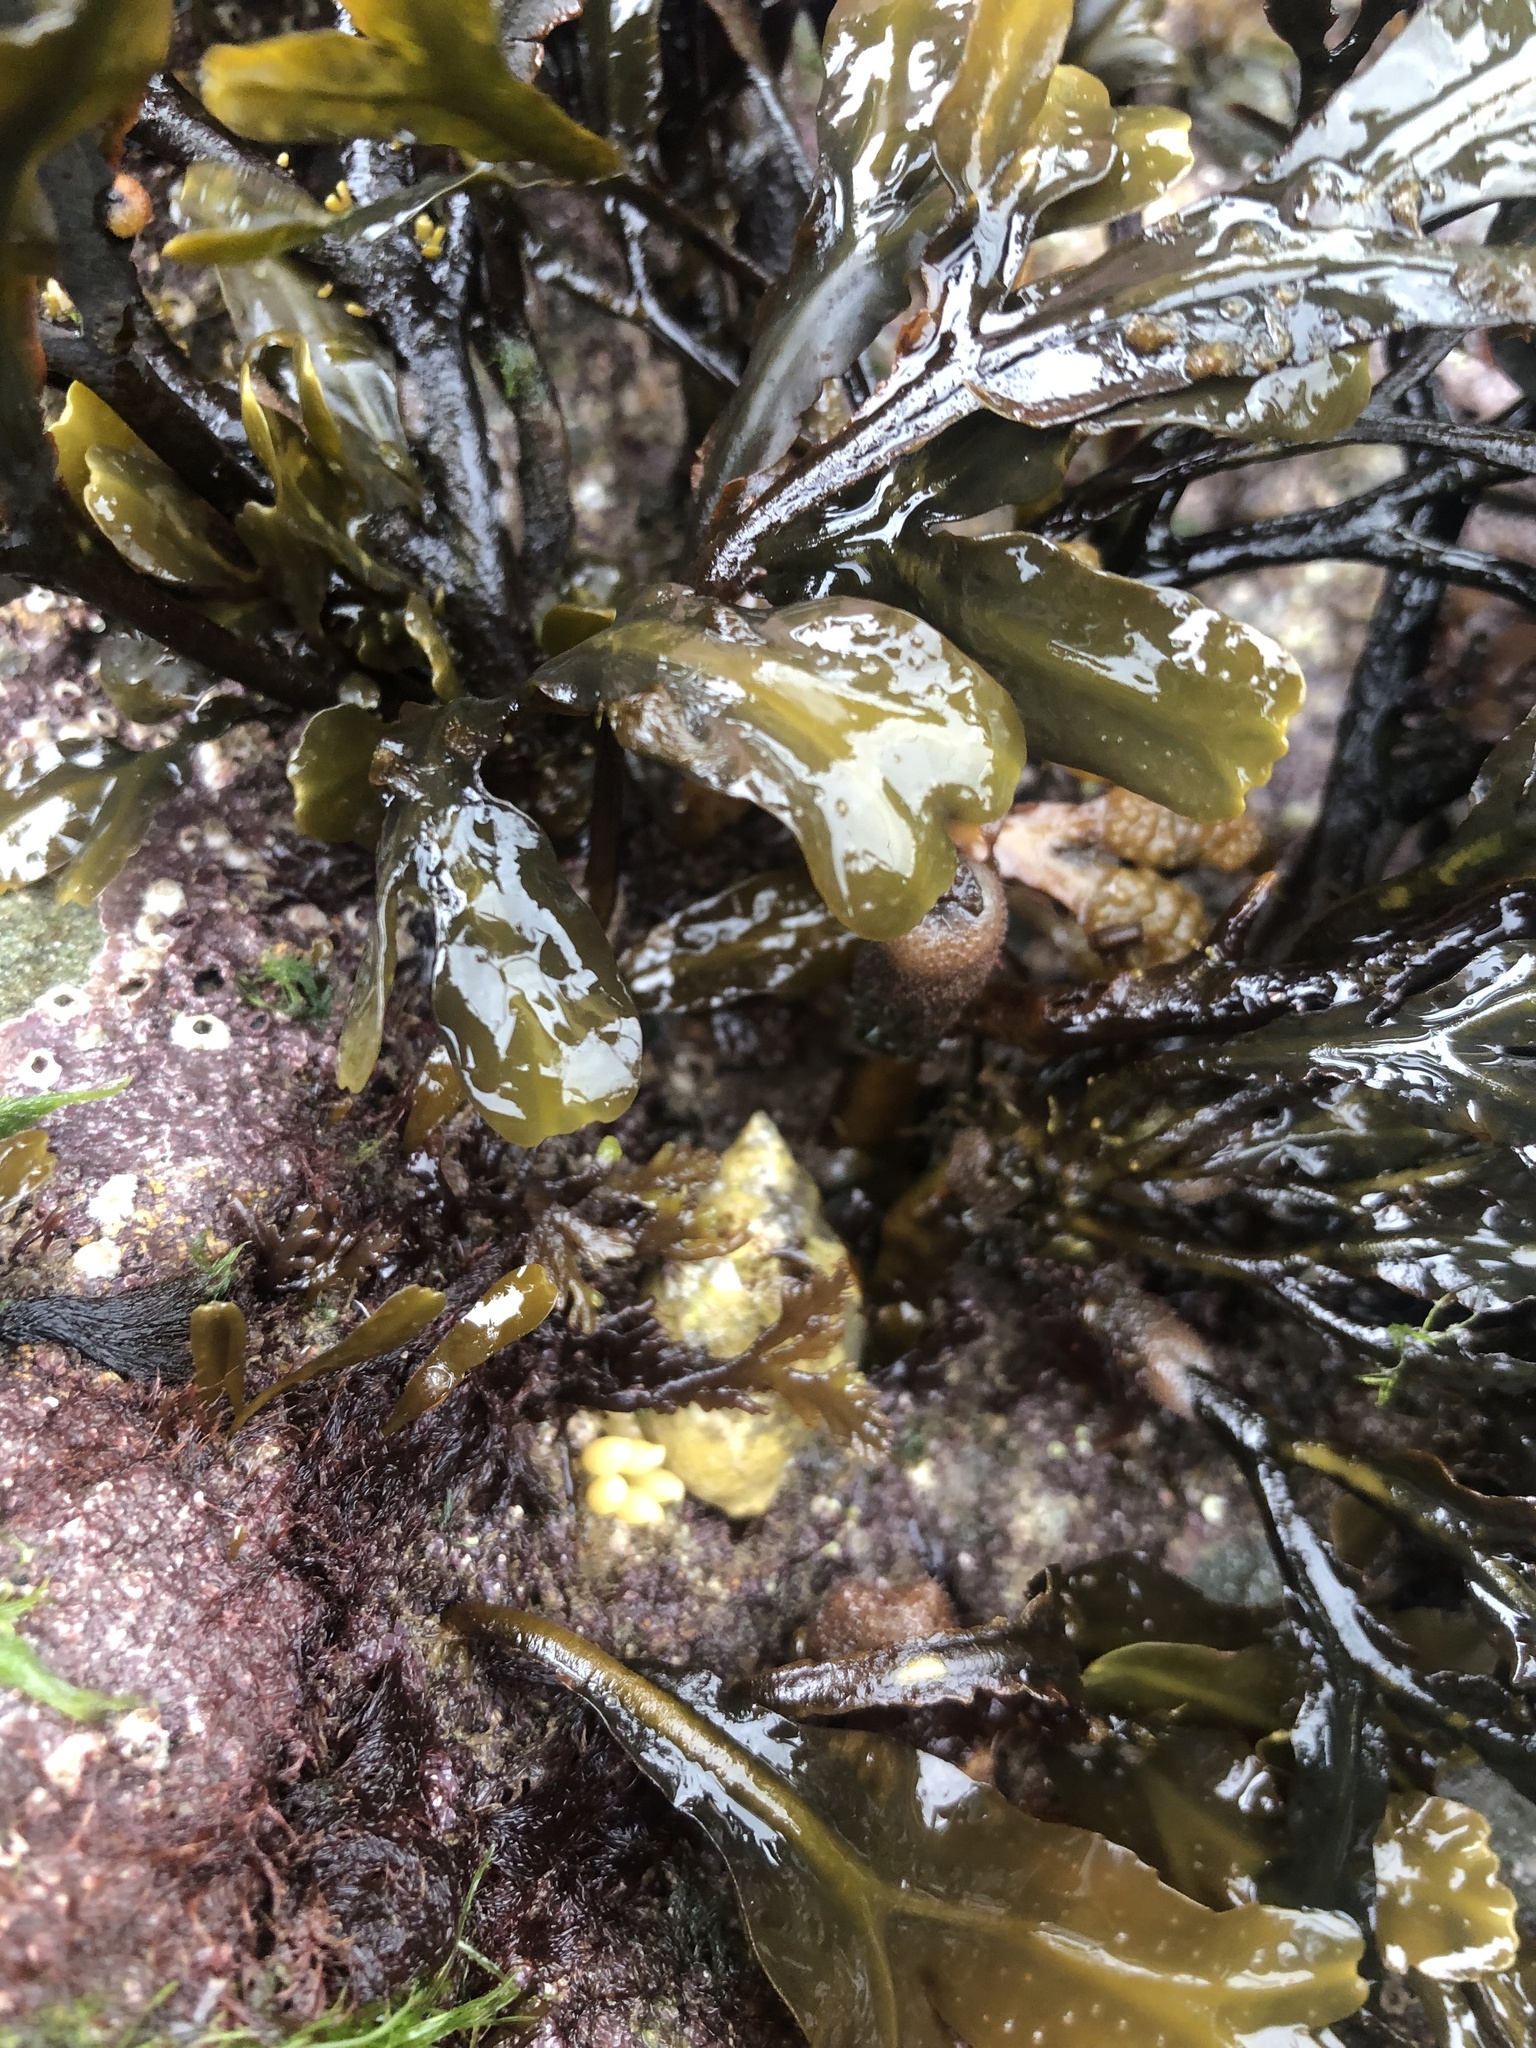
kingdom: Animalia
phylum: Mollusca
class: Gastropoda
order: Neogastropoda
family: Muricidae
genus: Nucella
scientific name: Nucella lapillus
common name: Dog whelk
